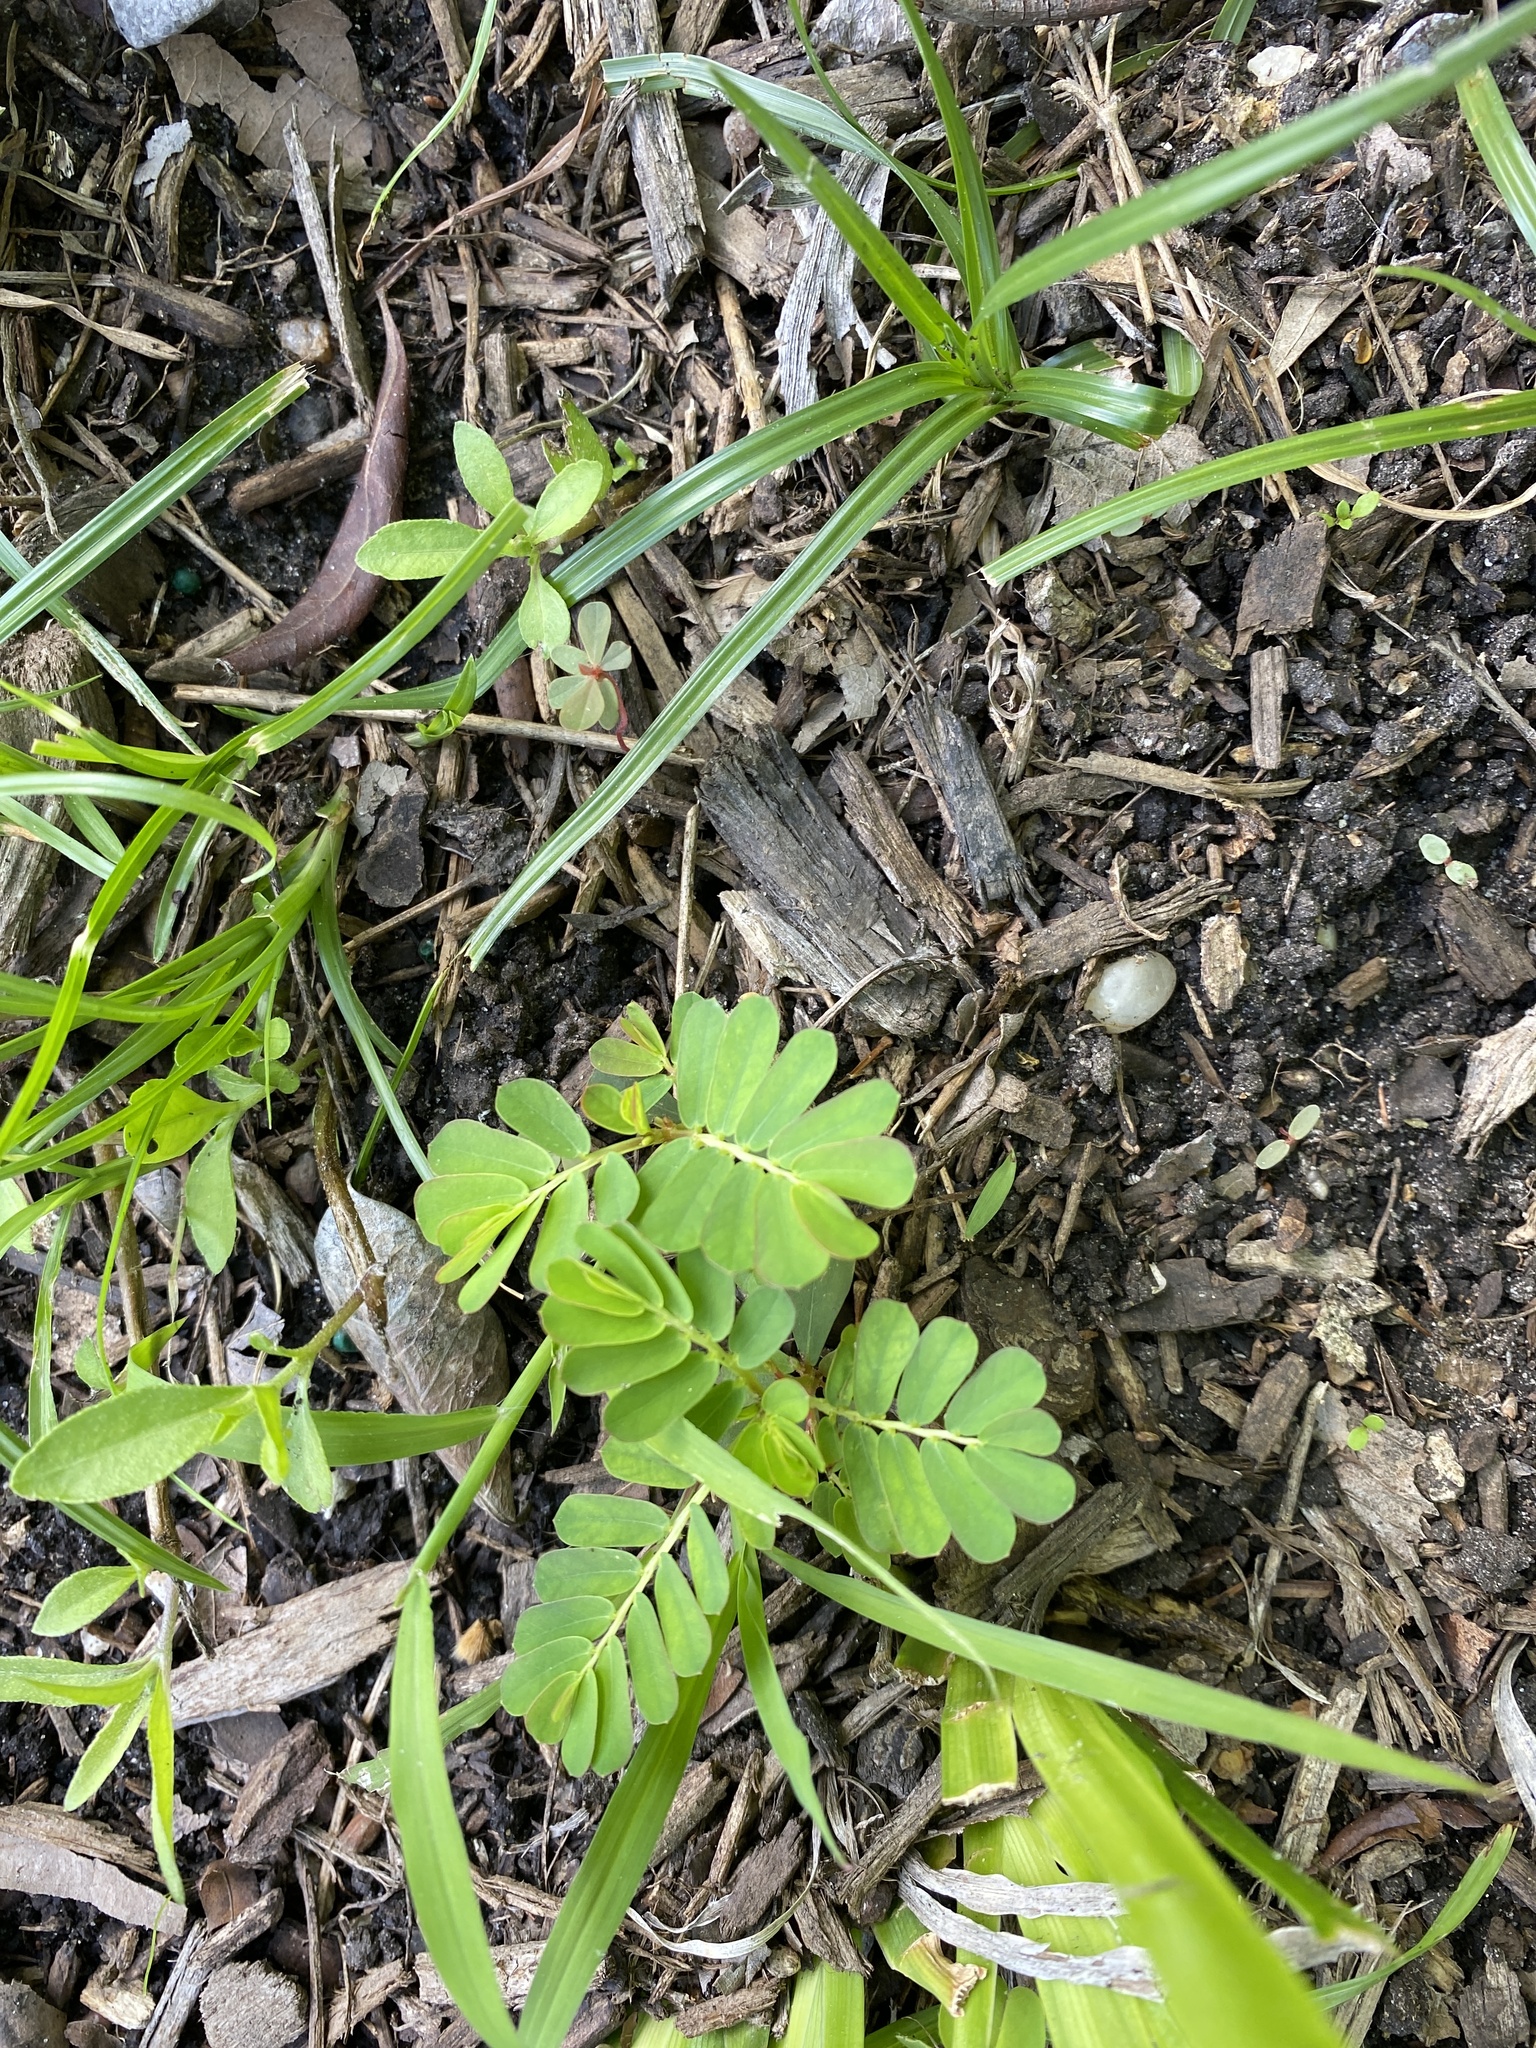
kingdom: Plantae
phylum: Tracheophyta
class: Magnoliopsida
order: Malpighiales
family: Phyllanthaceae
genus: Phyllanthus
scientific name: Phyllanthus urinaria
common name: Chamber bitter
